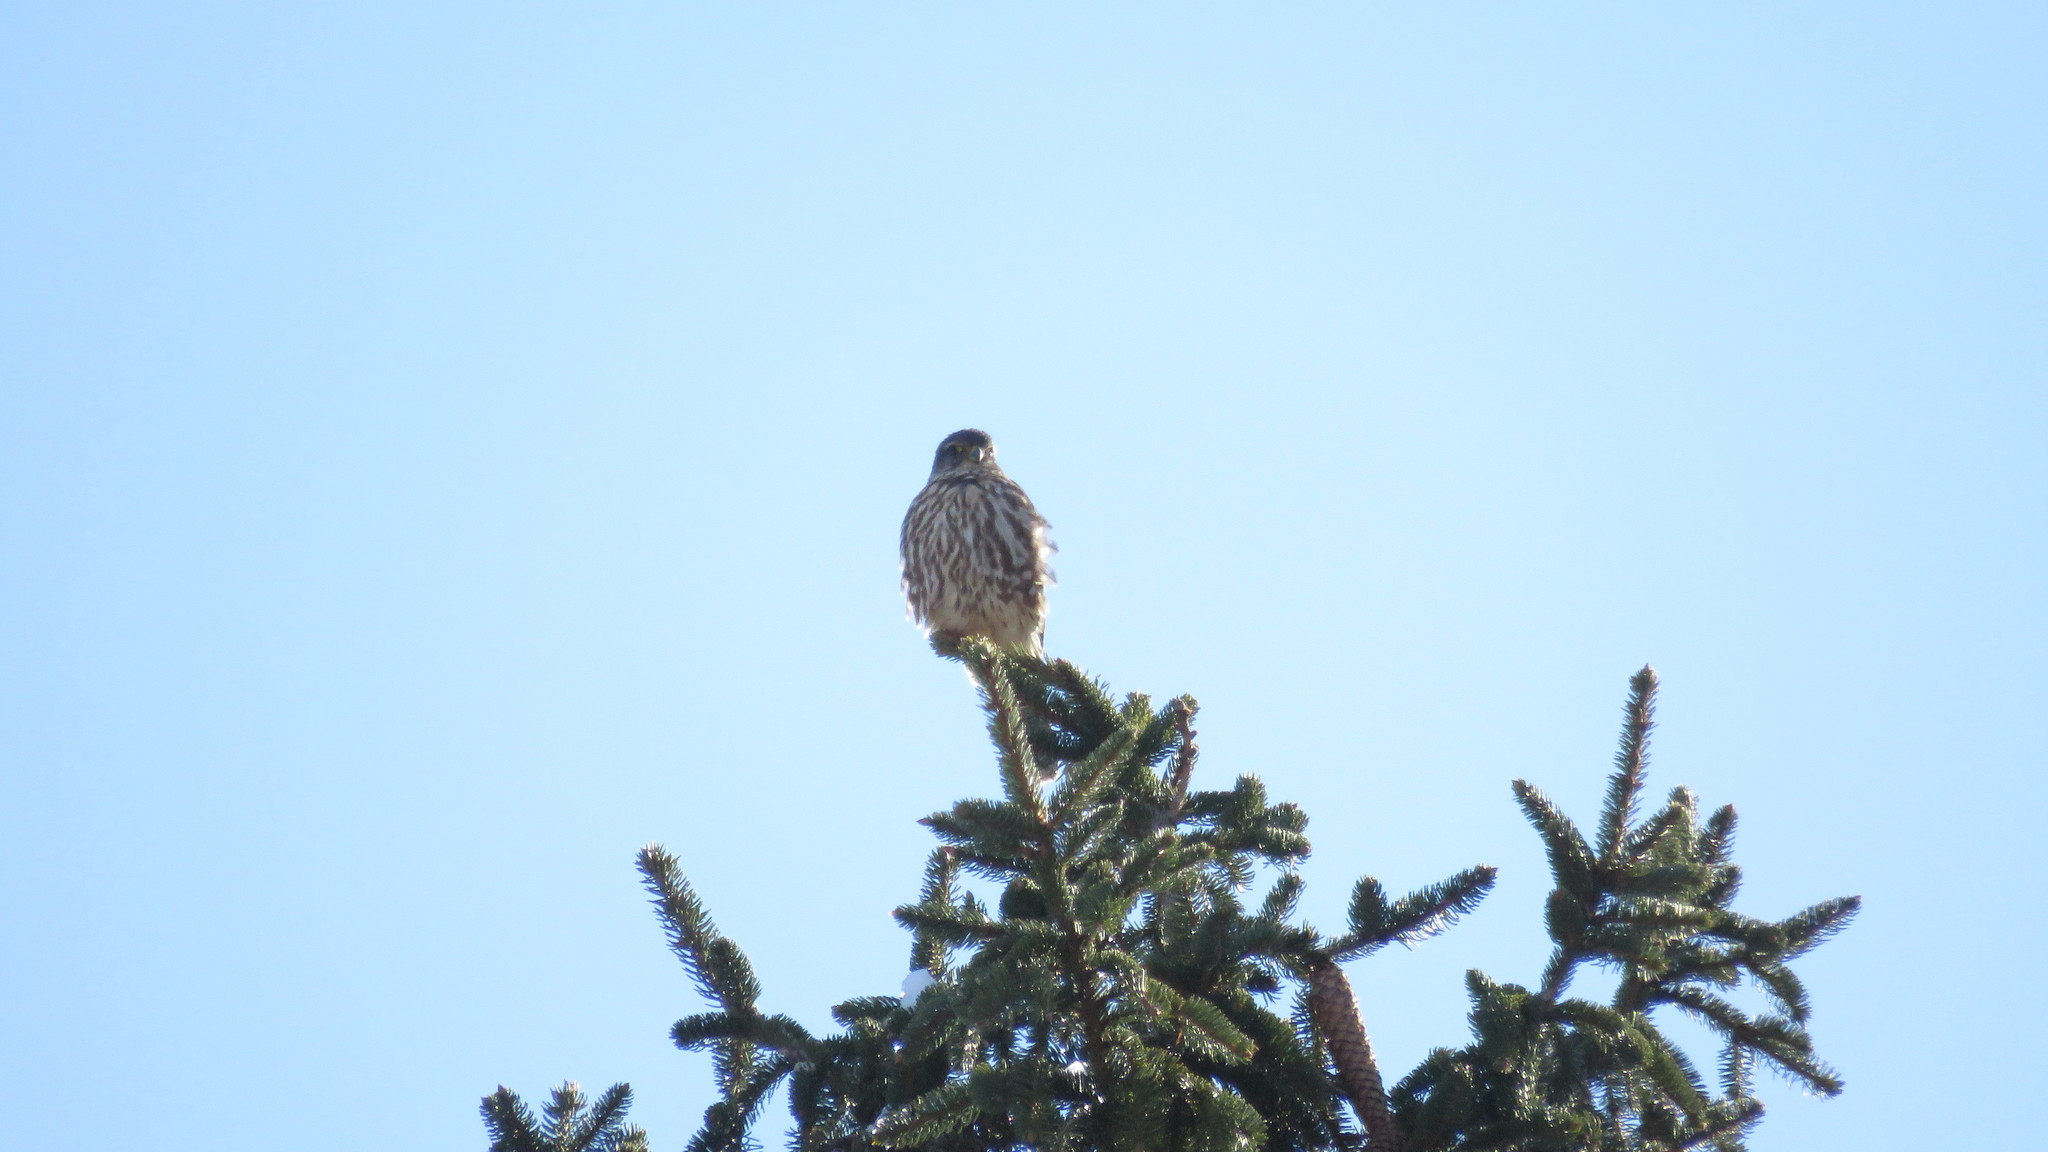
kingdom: Animalia
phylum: Chordata
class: Aves
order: Falconiformes
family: Falconidae
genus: Falco
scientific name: Falco columbarius
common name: Merlin
